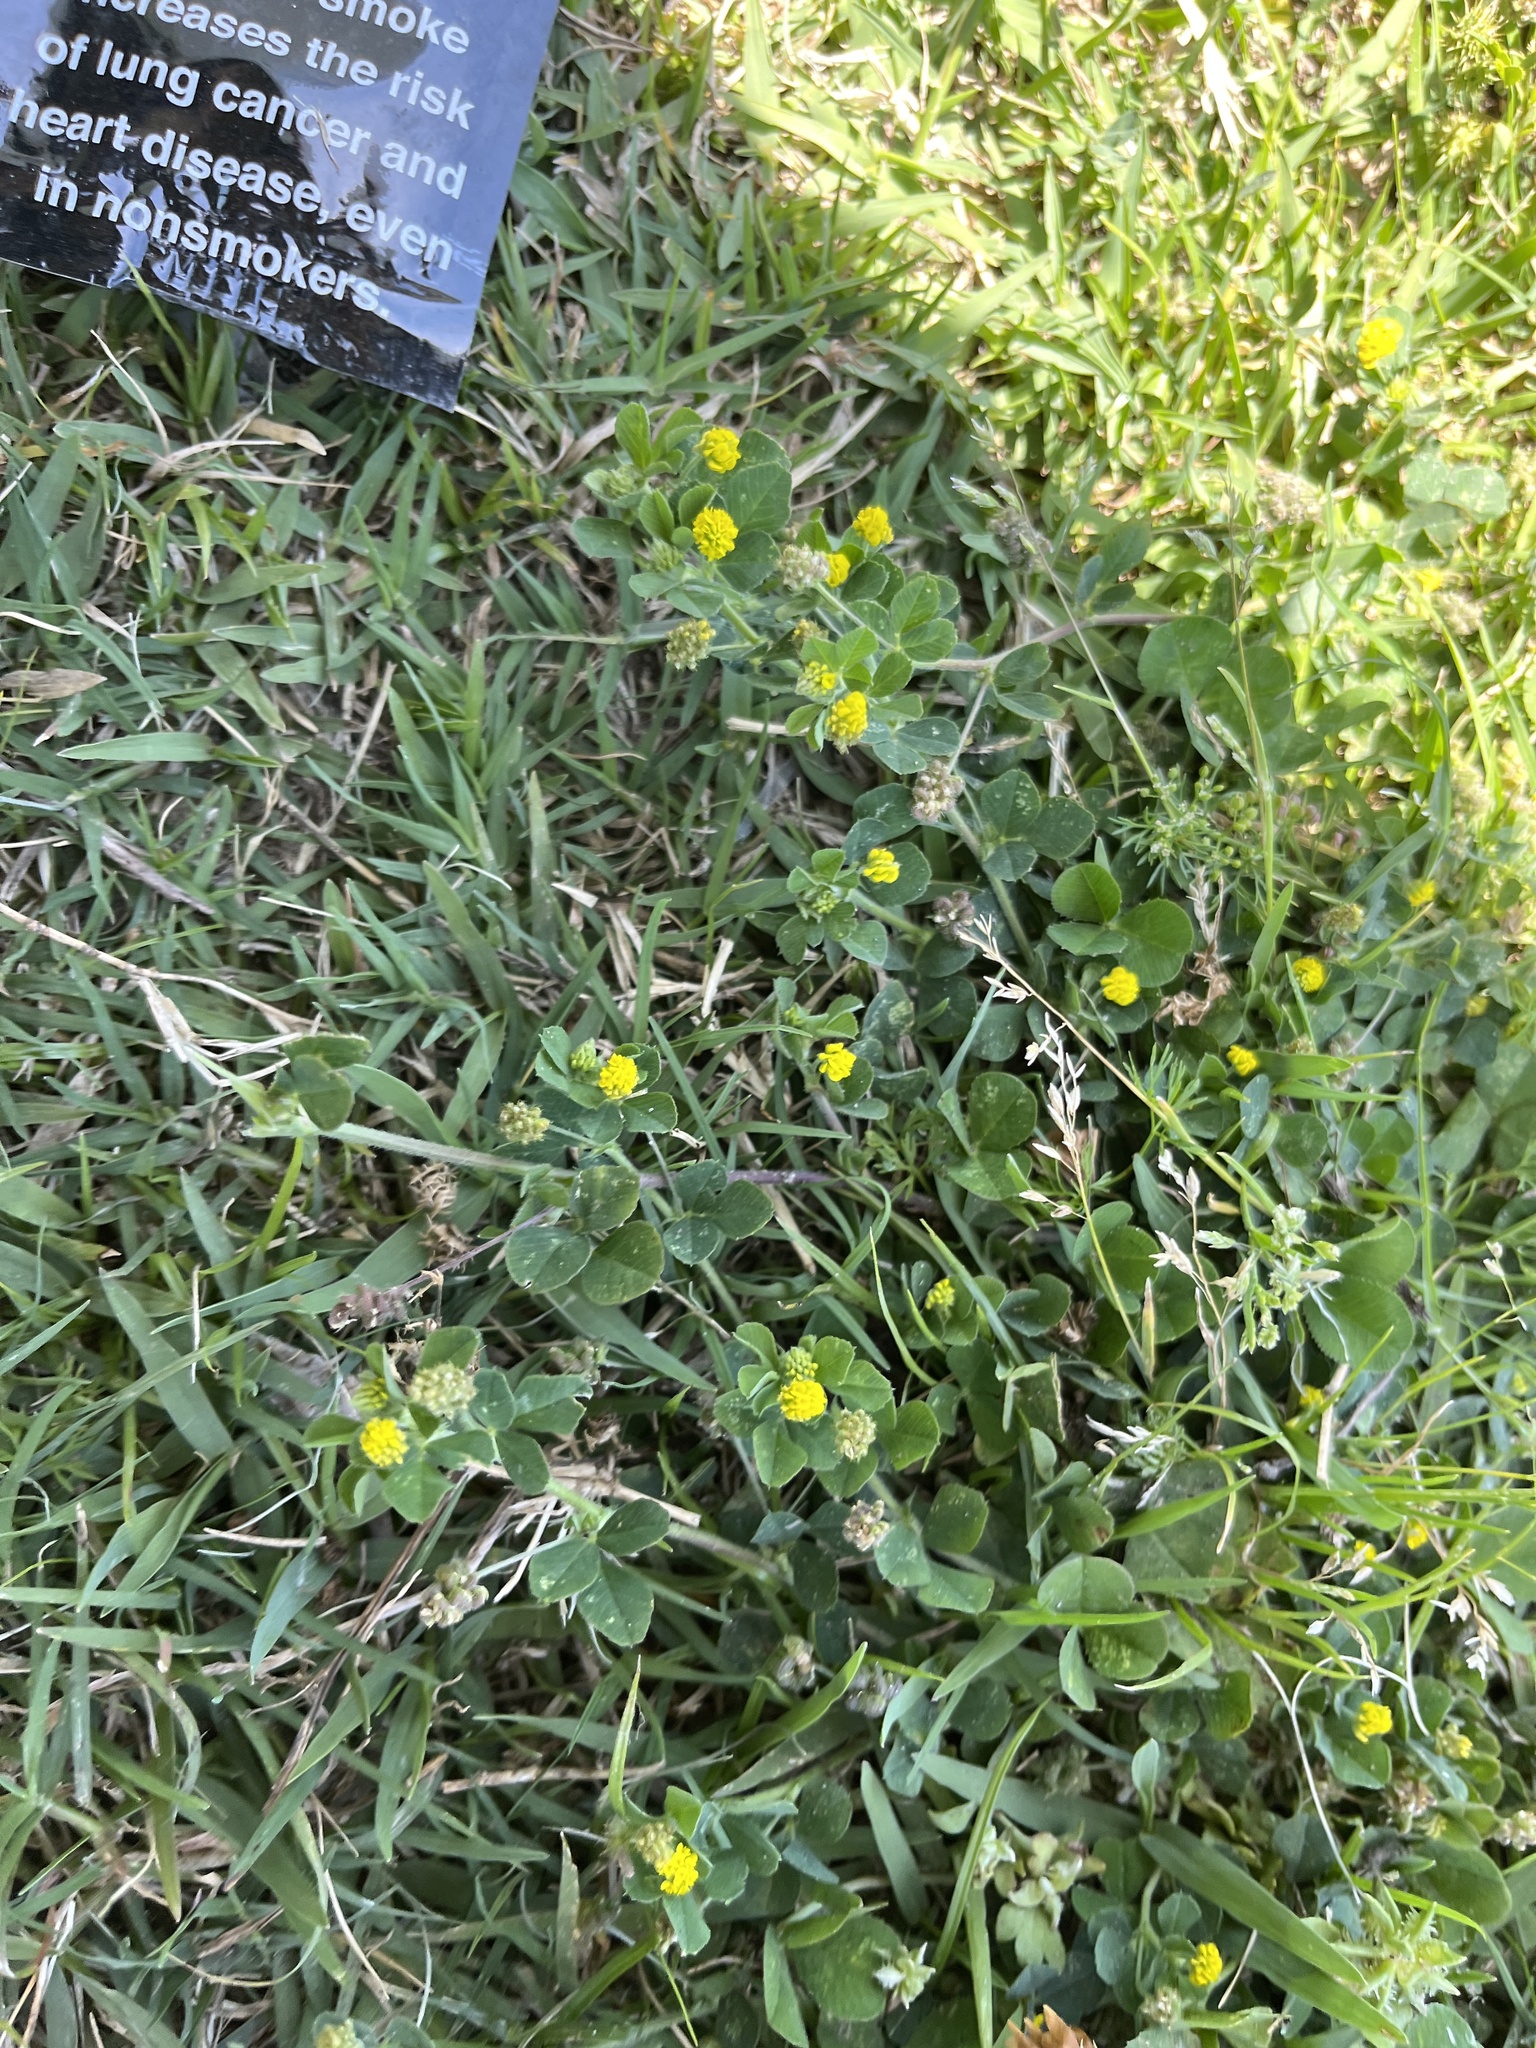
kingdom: Plantae
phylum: Tracheophyta
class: Magnoliopsida
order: Fabales
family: Fabaceae
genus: Medicago
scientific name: Medicago lupulina
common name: Black medick
